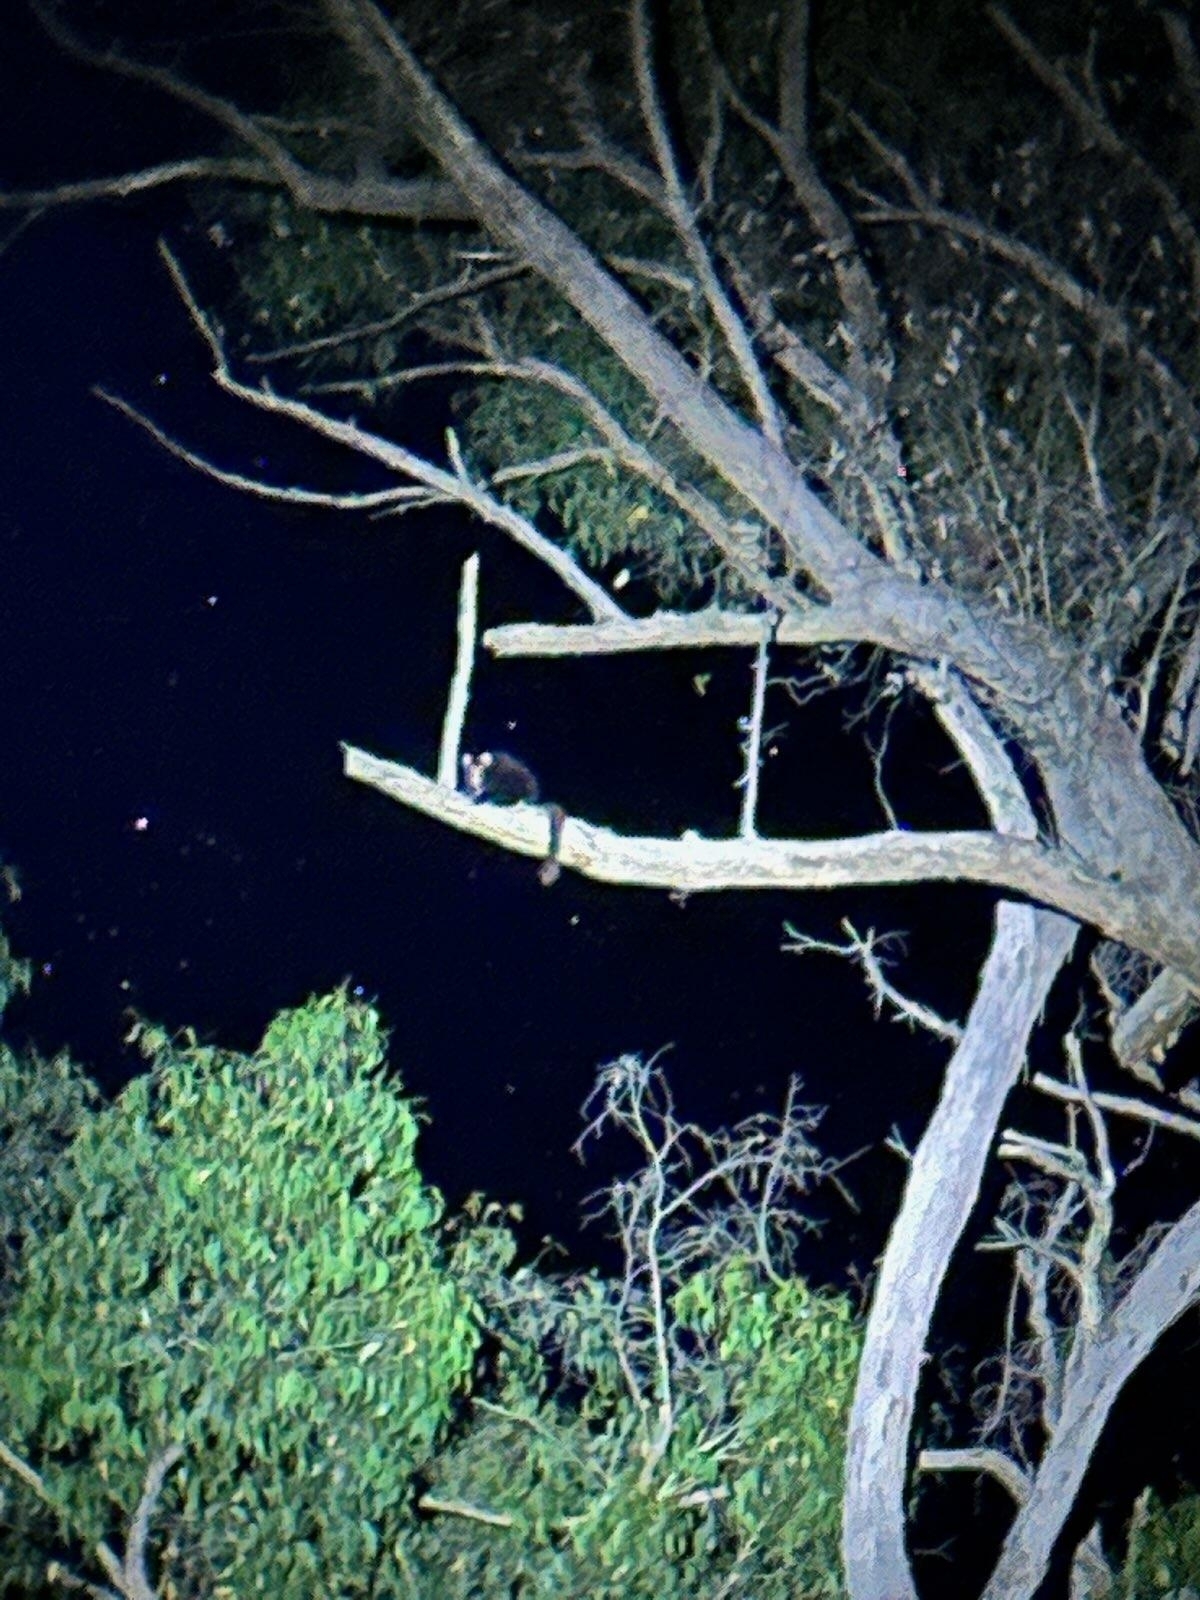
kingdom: Animalia
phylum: Chordata
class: Mammalia
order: Diprotodontia
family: Pseudocheiridae
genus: Petauroides
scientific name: Petauroides volans
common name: Greater glider
